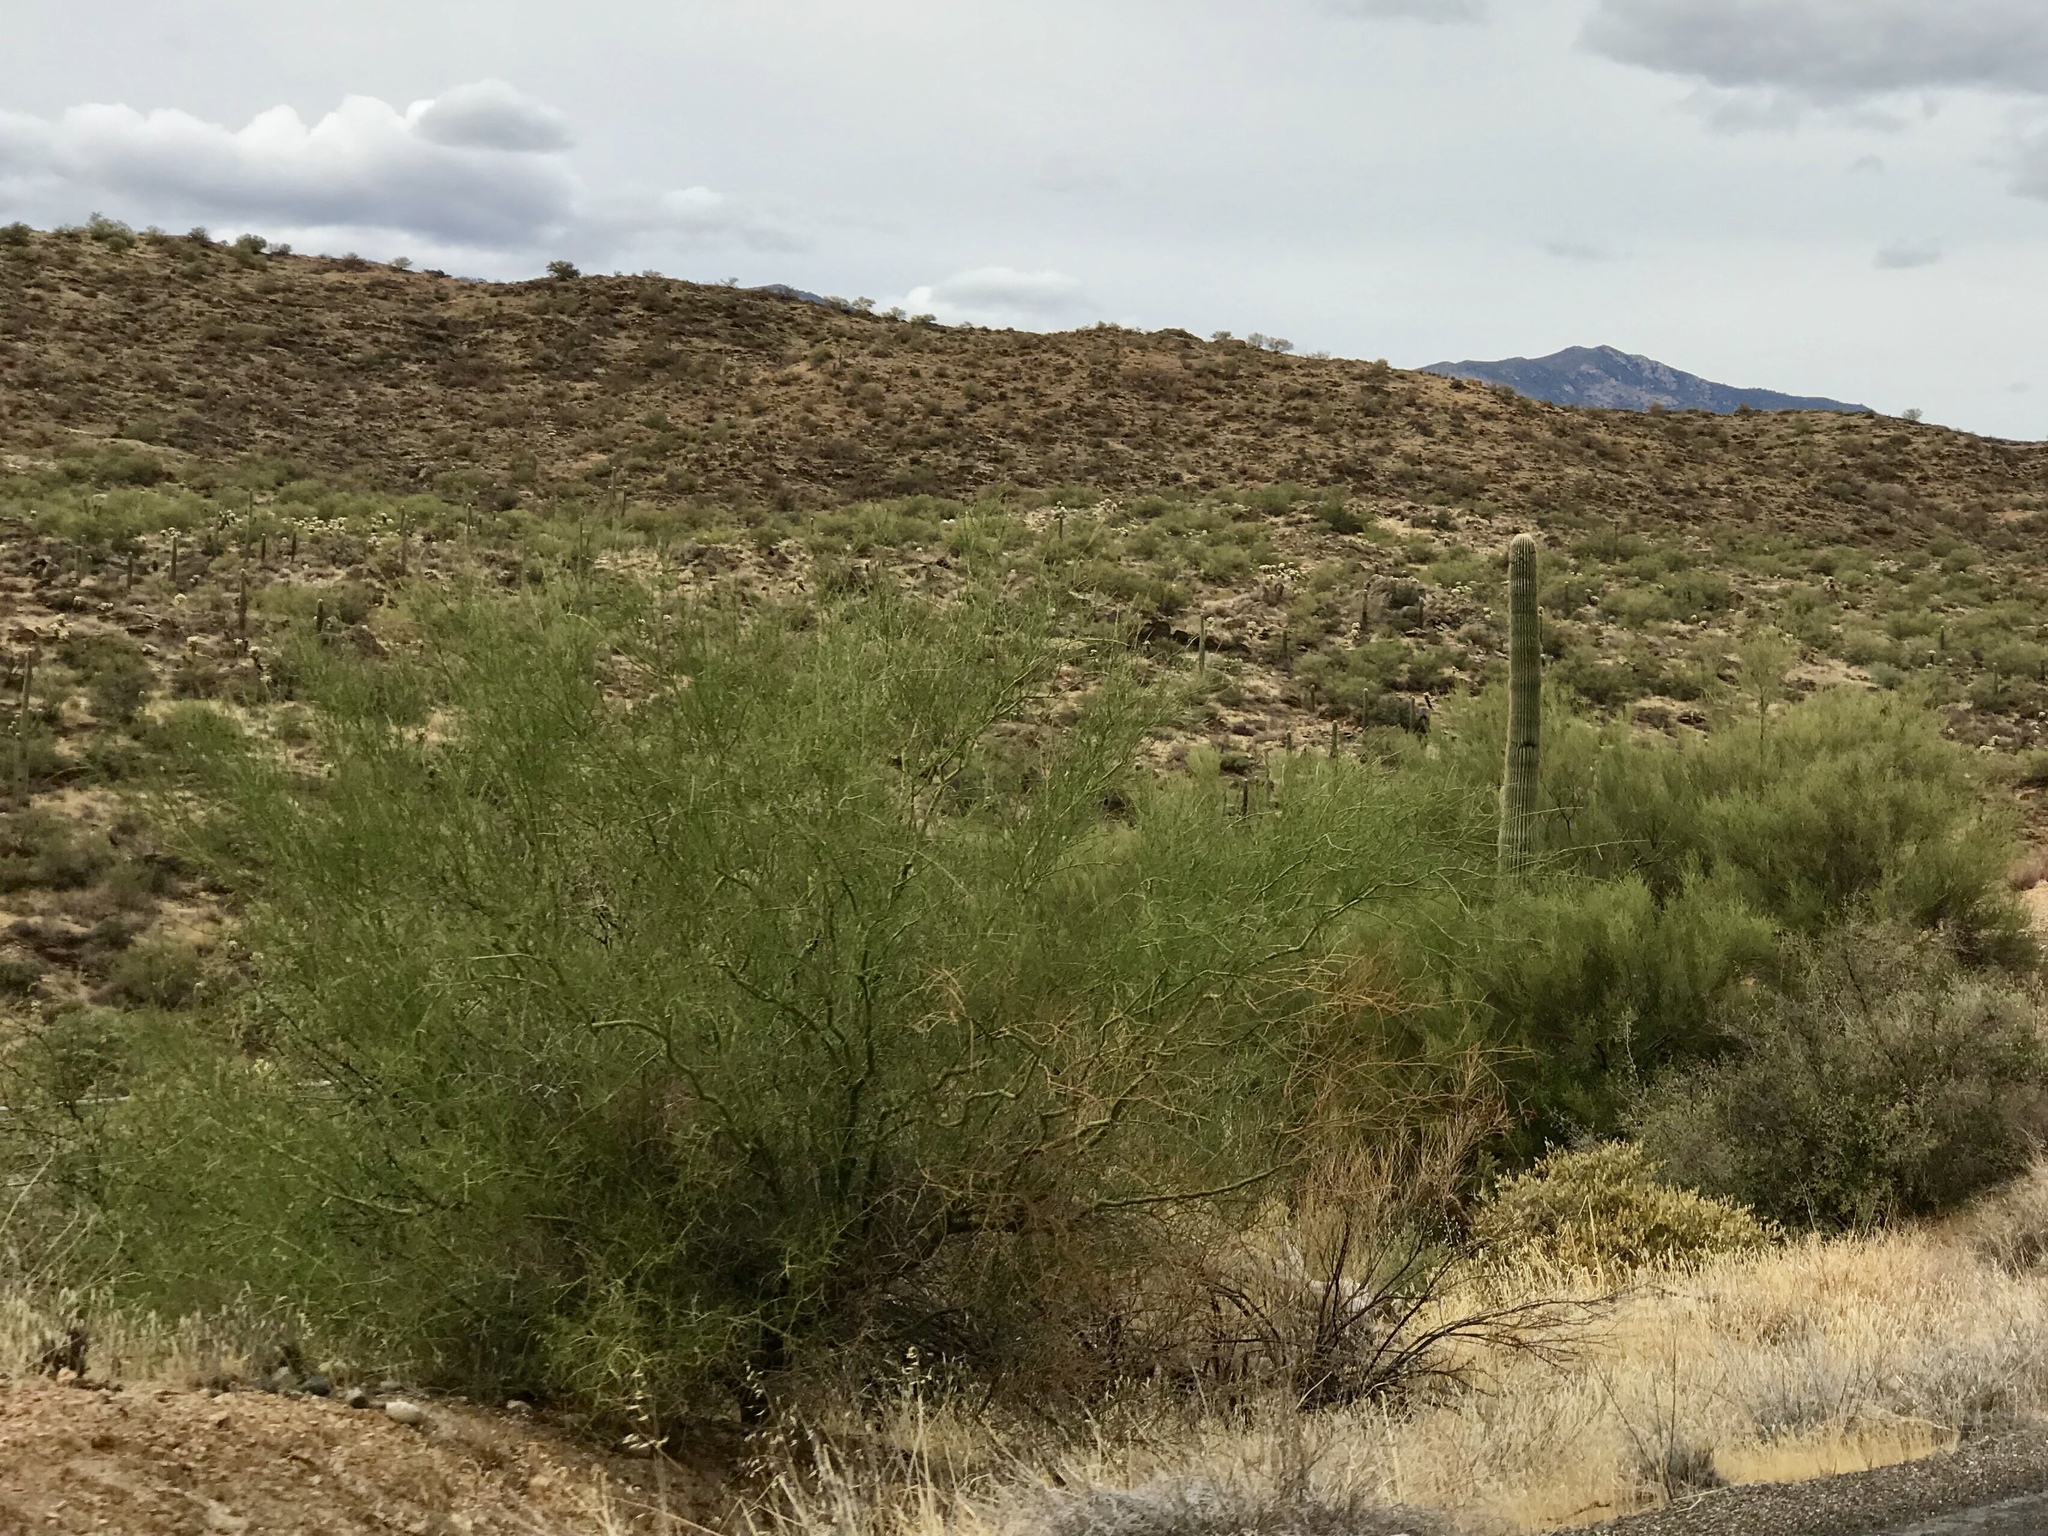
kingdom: Plantae
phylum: Tracheophyta
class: Magnoliopsida
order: Fabales
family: Fabaceae
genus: Parkinsonia
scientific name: Parkinsonia microphylla
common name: Yellow paloverde
